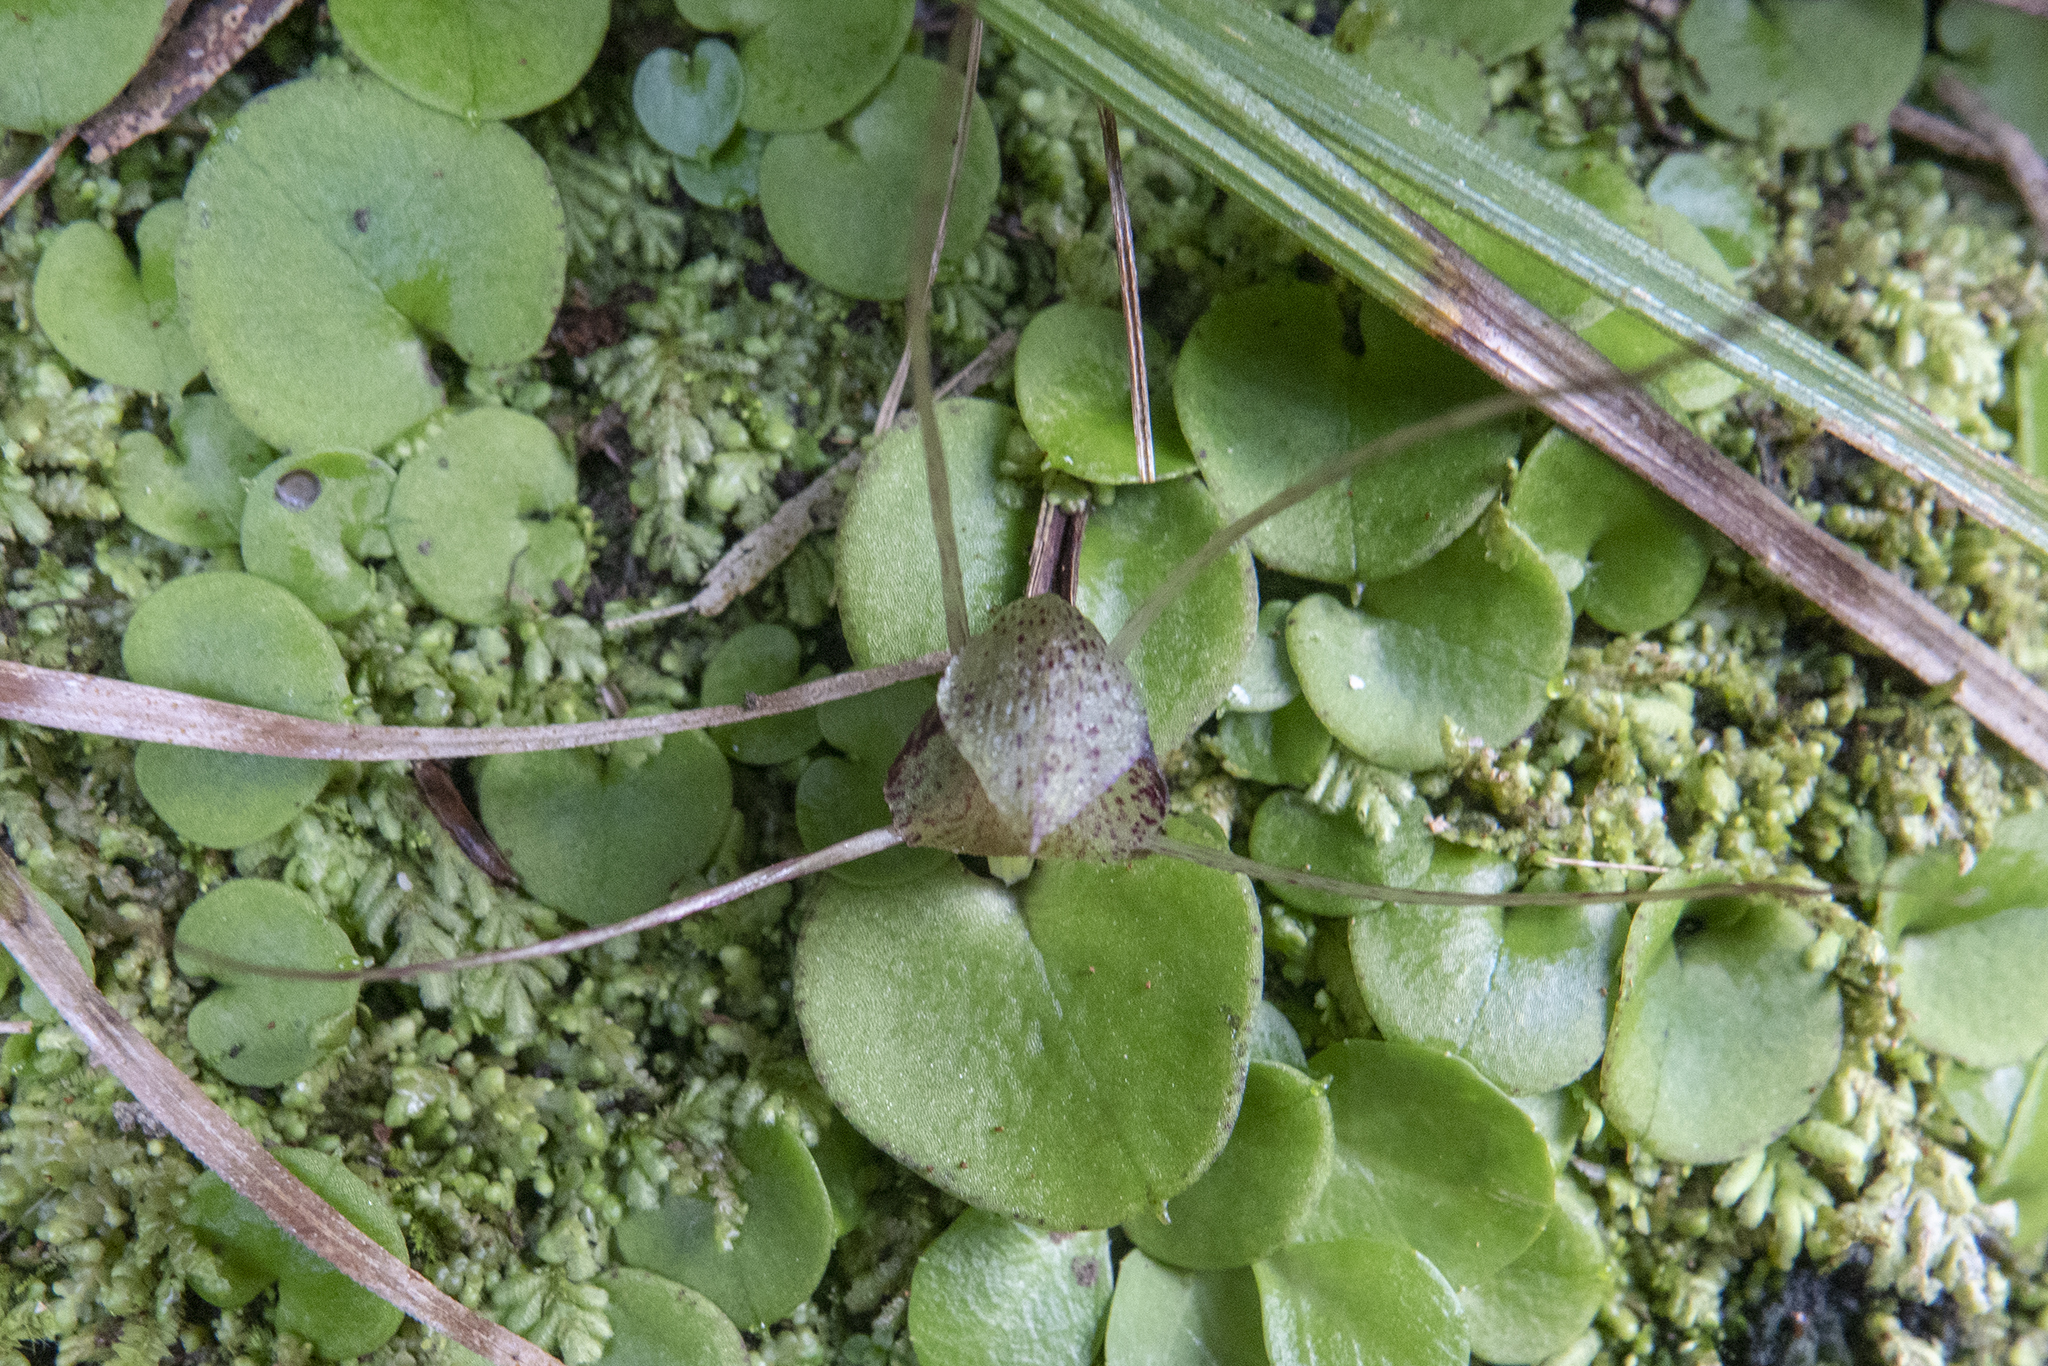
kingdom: Plantae
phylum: Tracheophyta
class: Liliopsida
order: Asparagales
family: Orchidaceae
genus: Corybas
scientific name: Corybas hatchii
